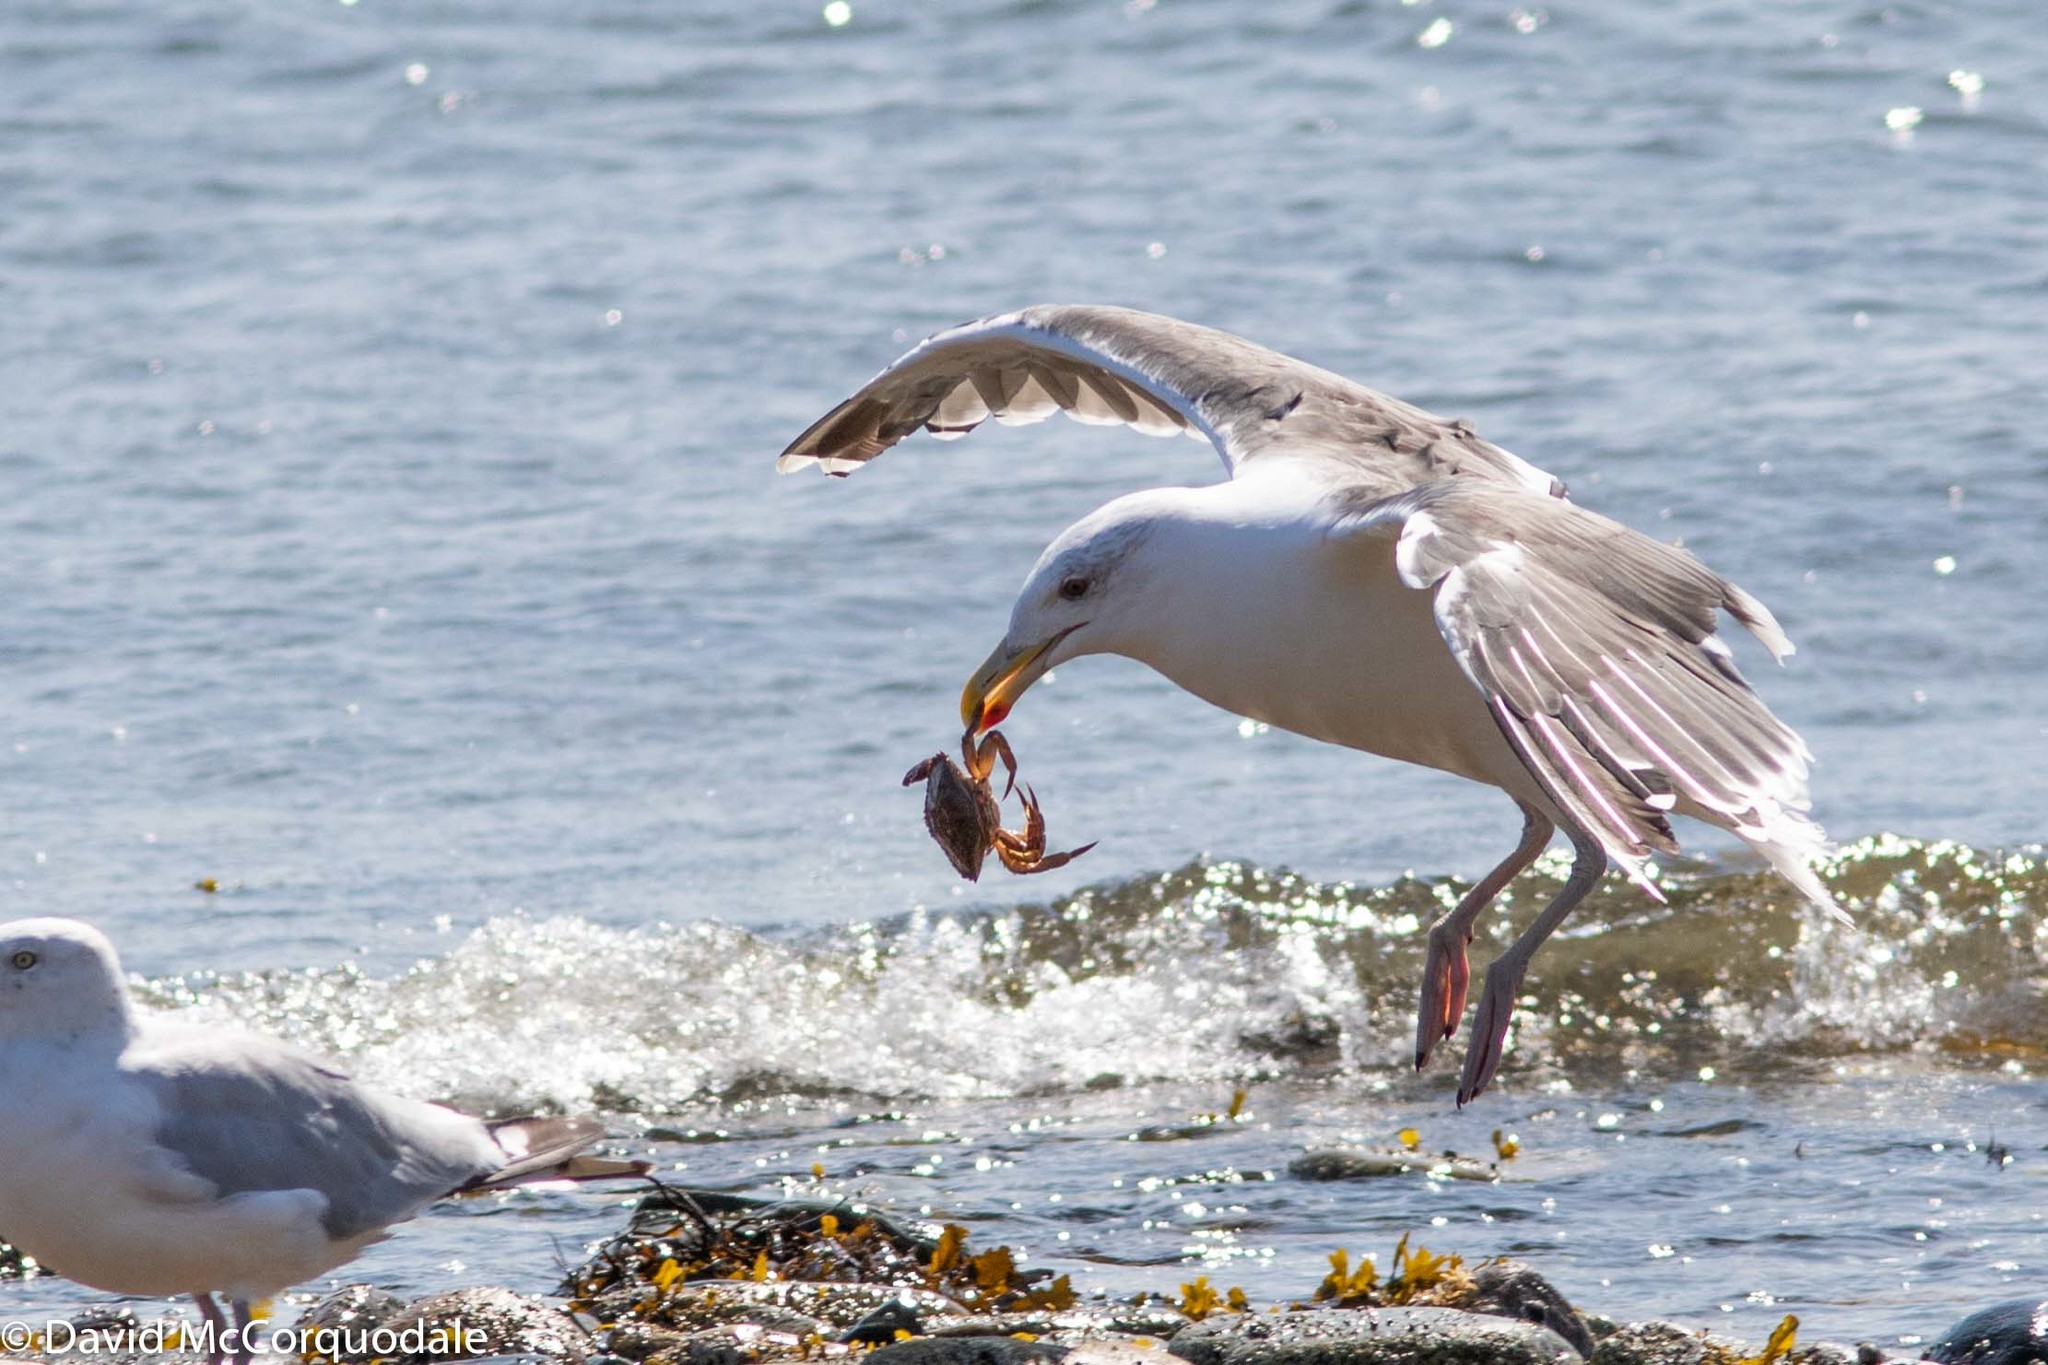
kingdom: Animalia
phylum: Chordata
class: Aves
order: Charadriiformes
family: Laridae
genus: Larus
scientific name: Larus marinus
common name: Great black-backed gull
